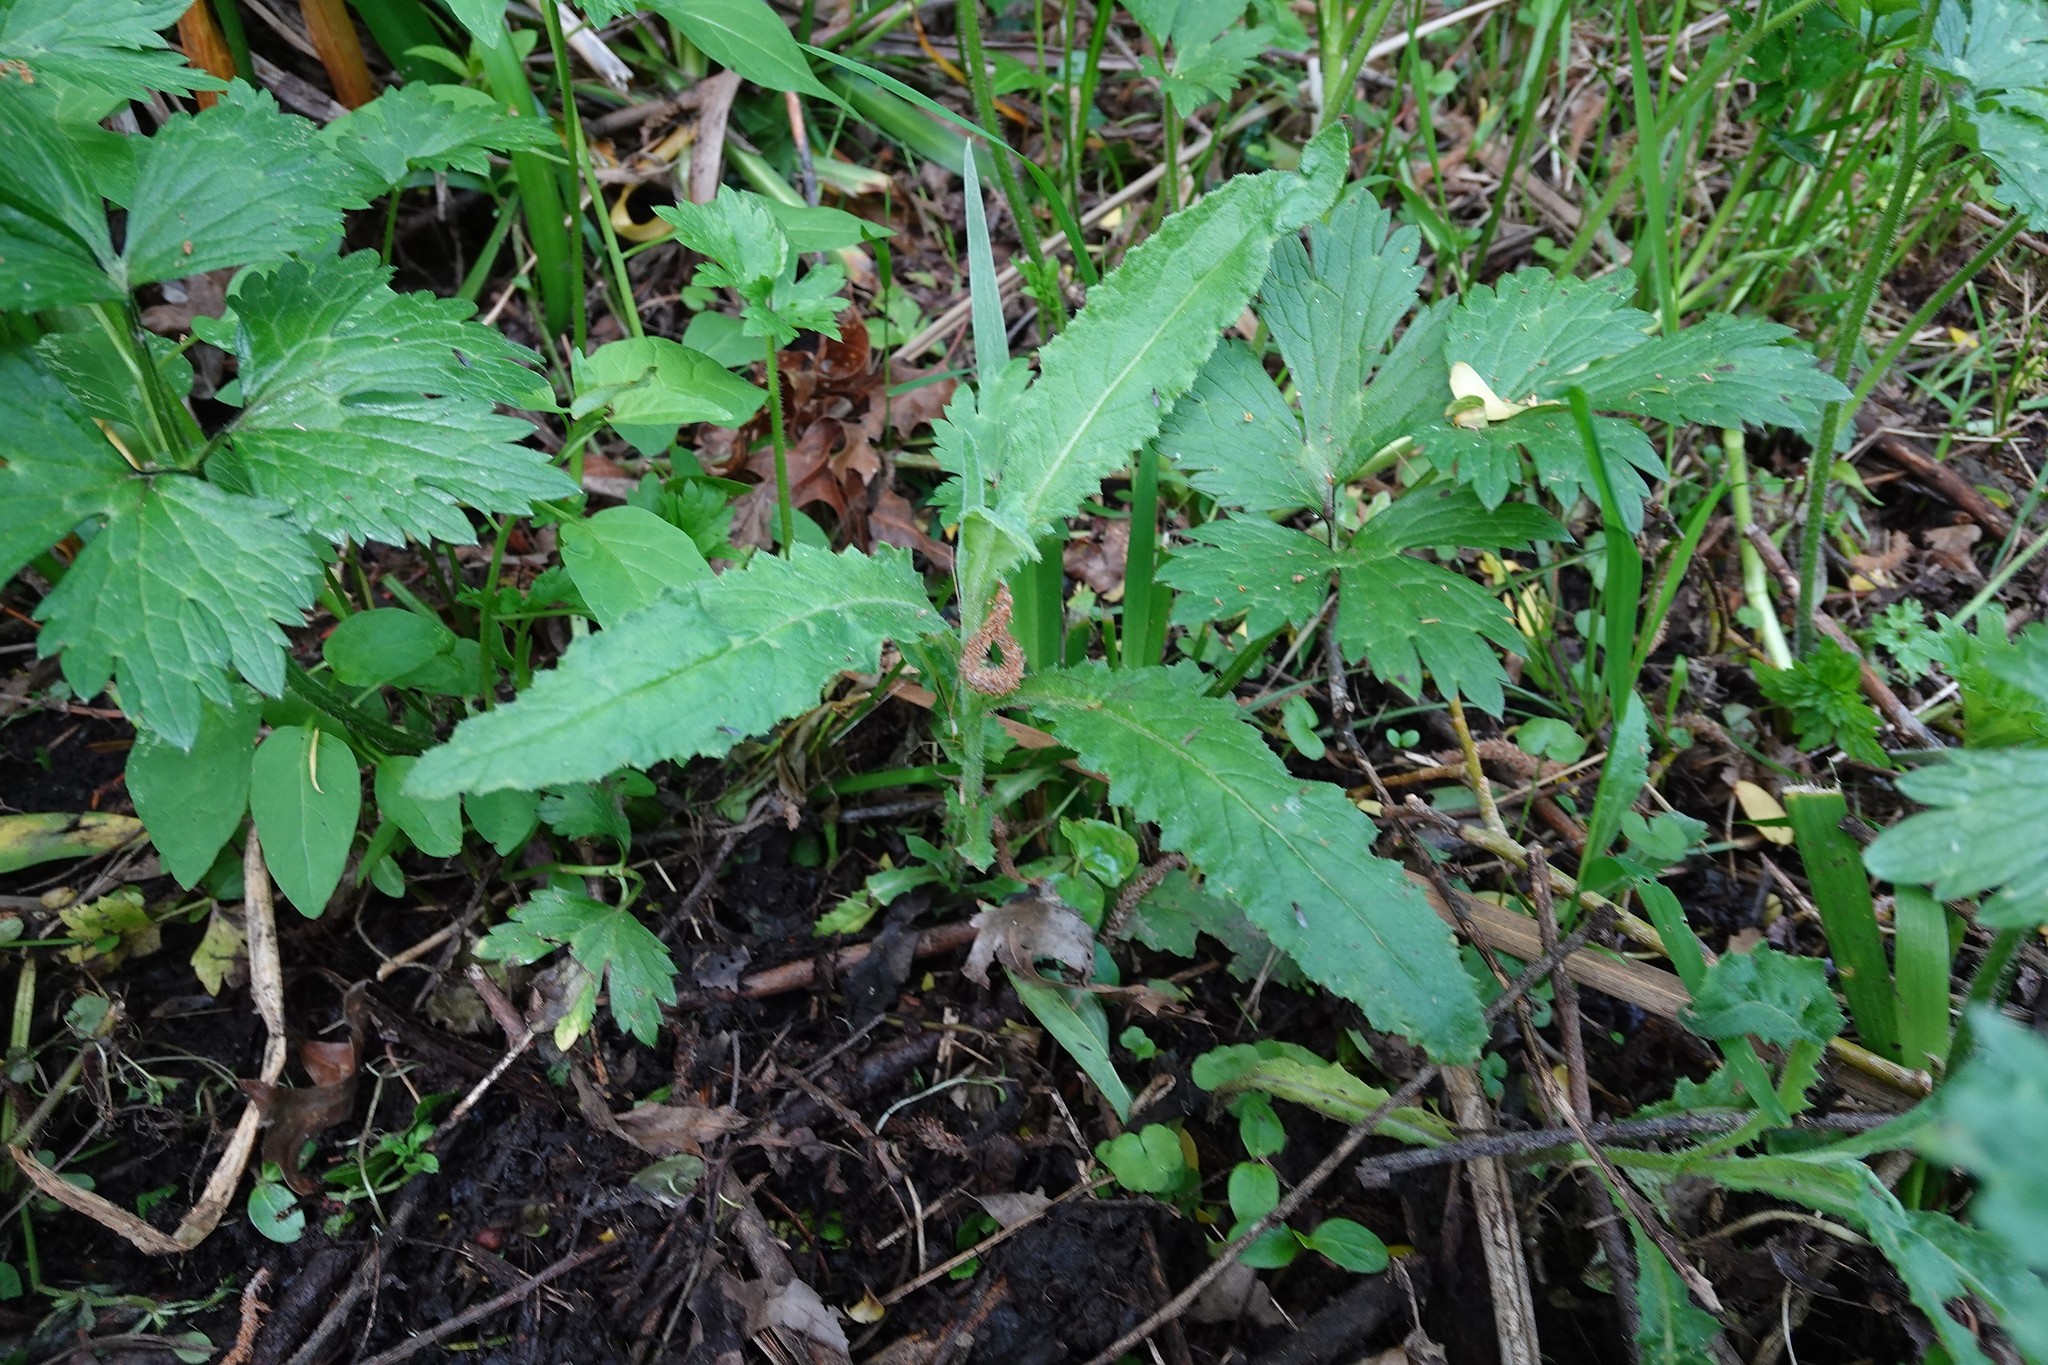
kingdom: Plantae
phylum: Tracheophyta
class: Magnoliopsida
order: Asterales
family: Asteraceae
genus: Senecio
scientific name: Senecio minimus
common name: Toothed fireweed
